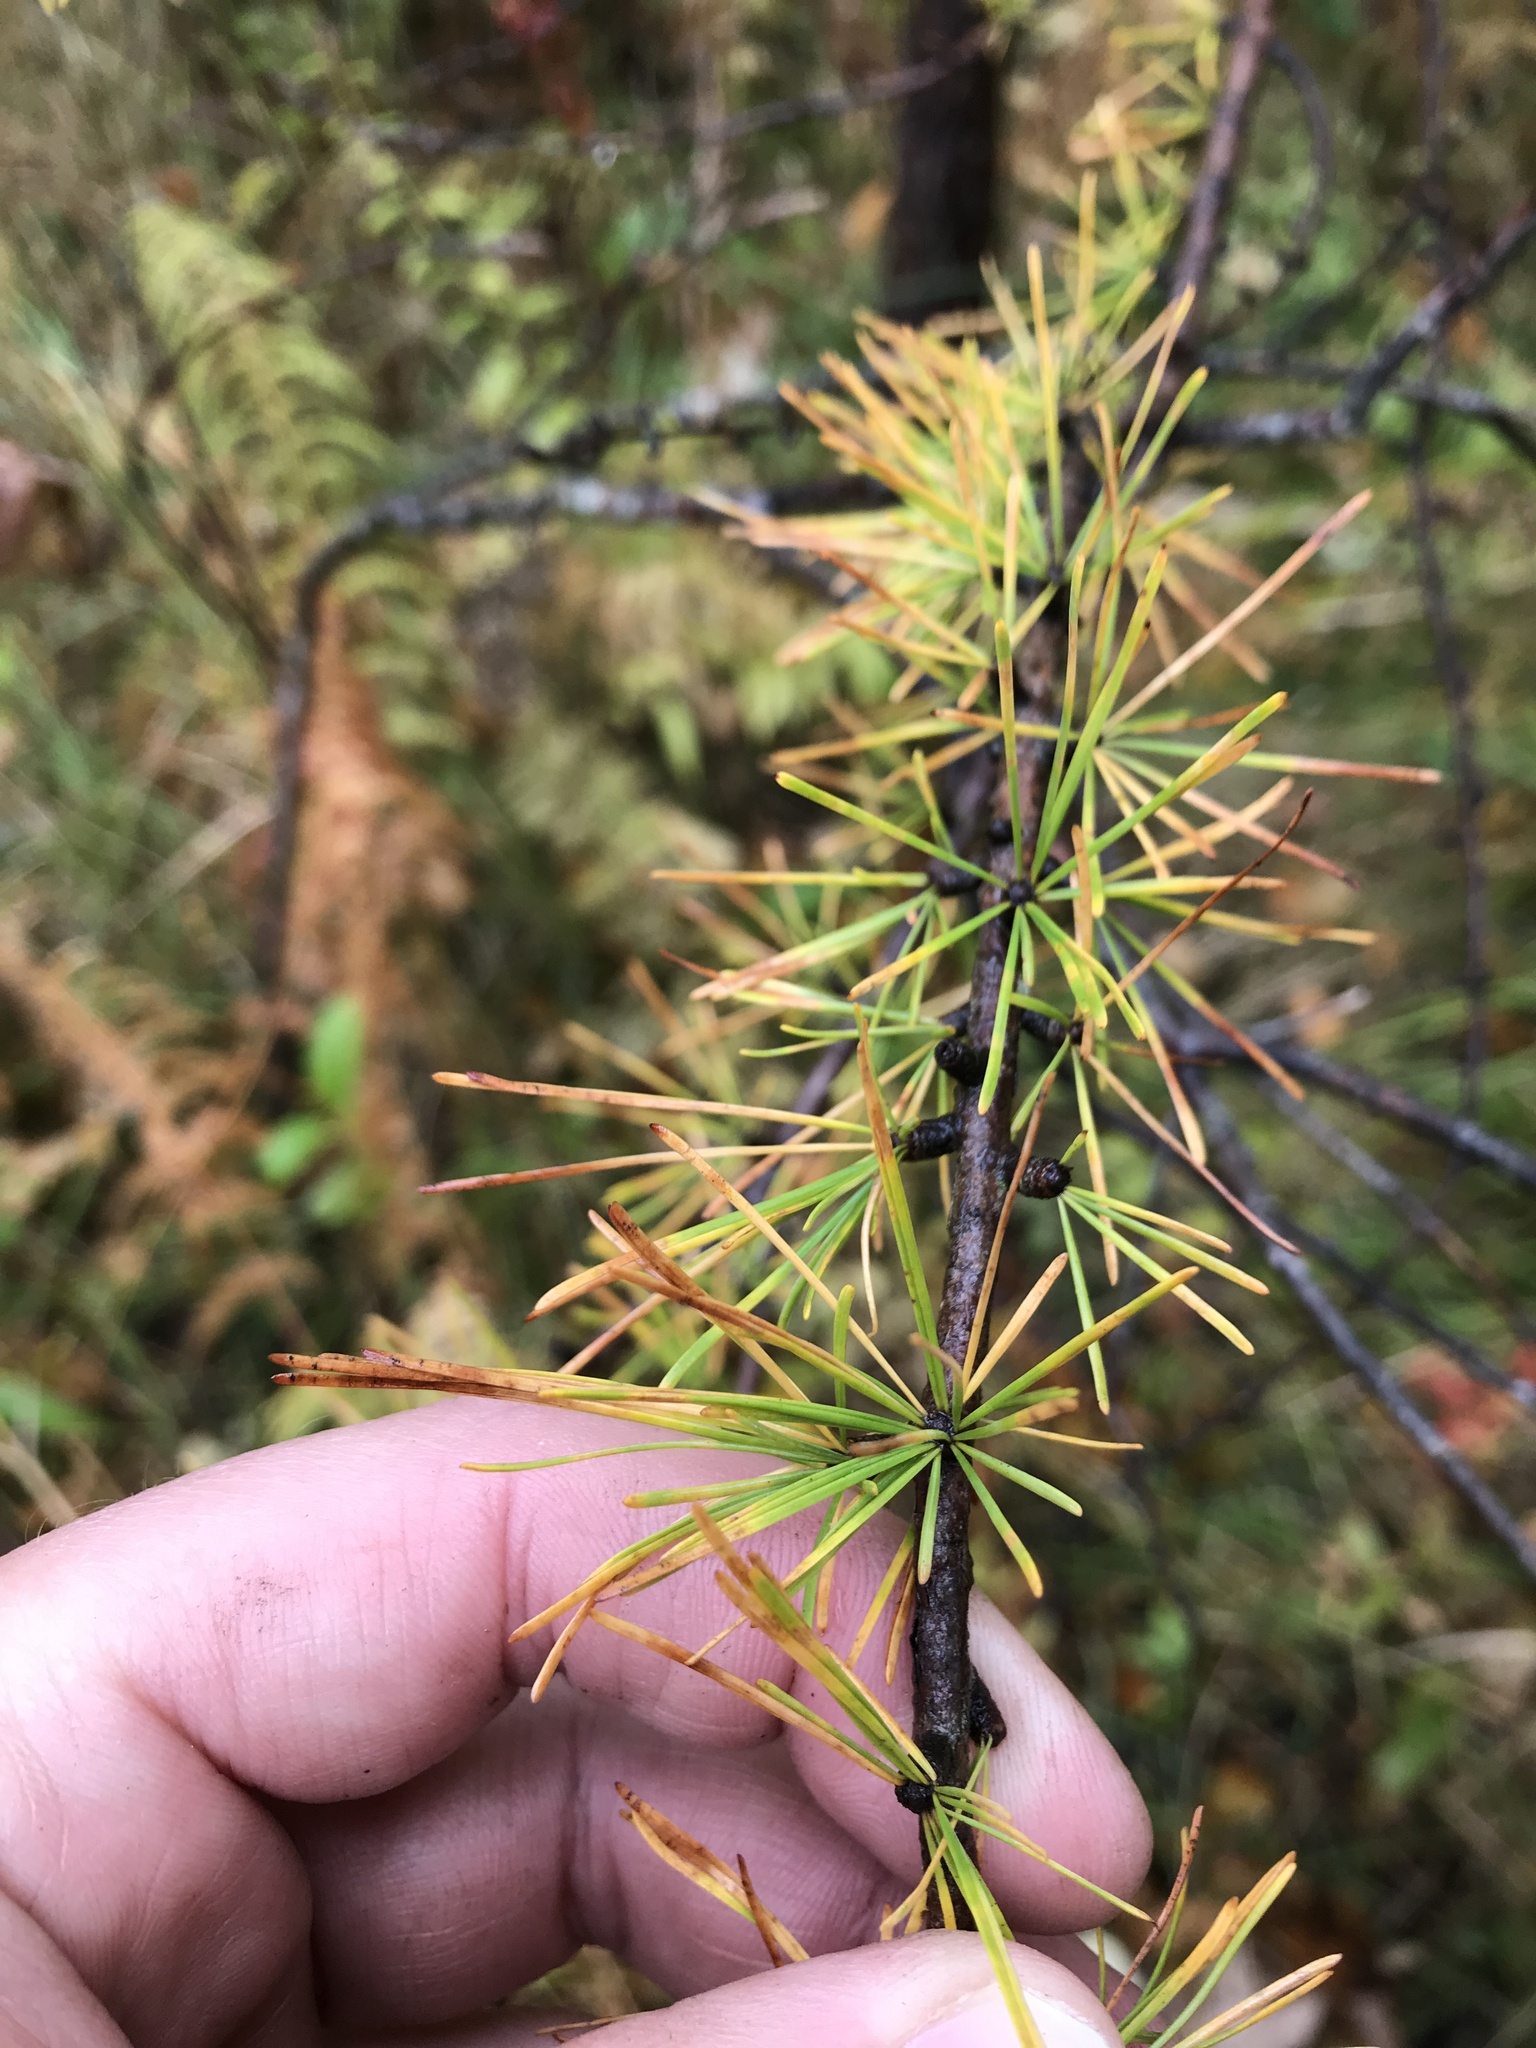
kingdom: Plantae
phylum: Tracheophyta
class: Pinopsida
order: Pinales
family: Pinaceae
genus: Larix
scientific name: Larix laricina
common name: American larch
